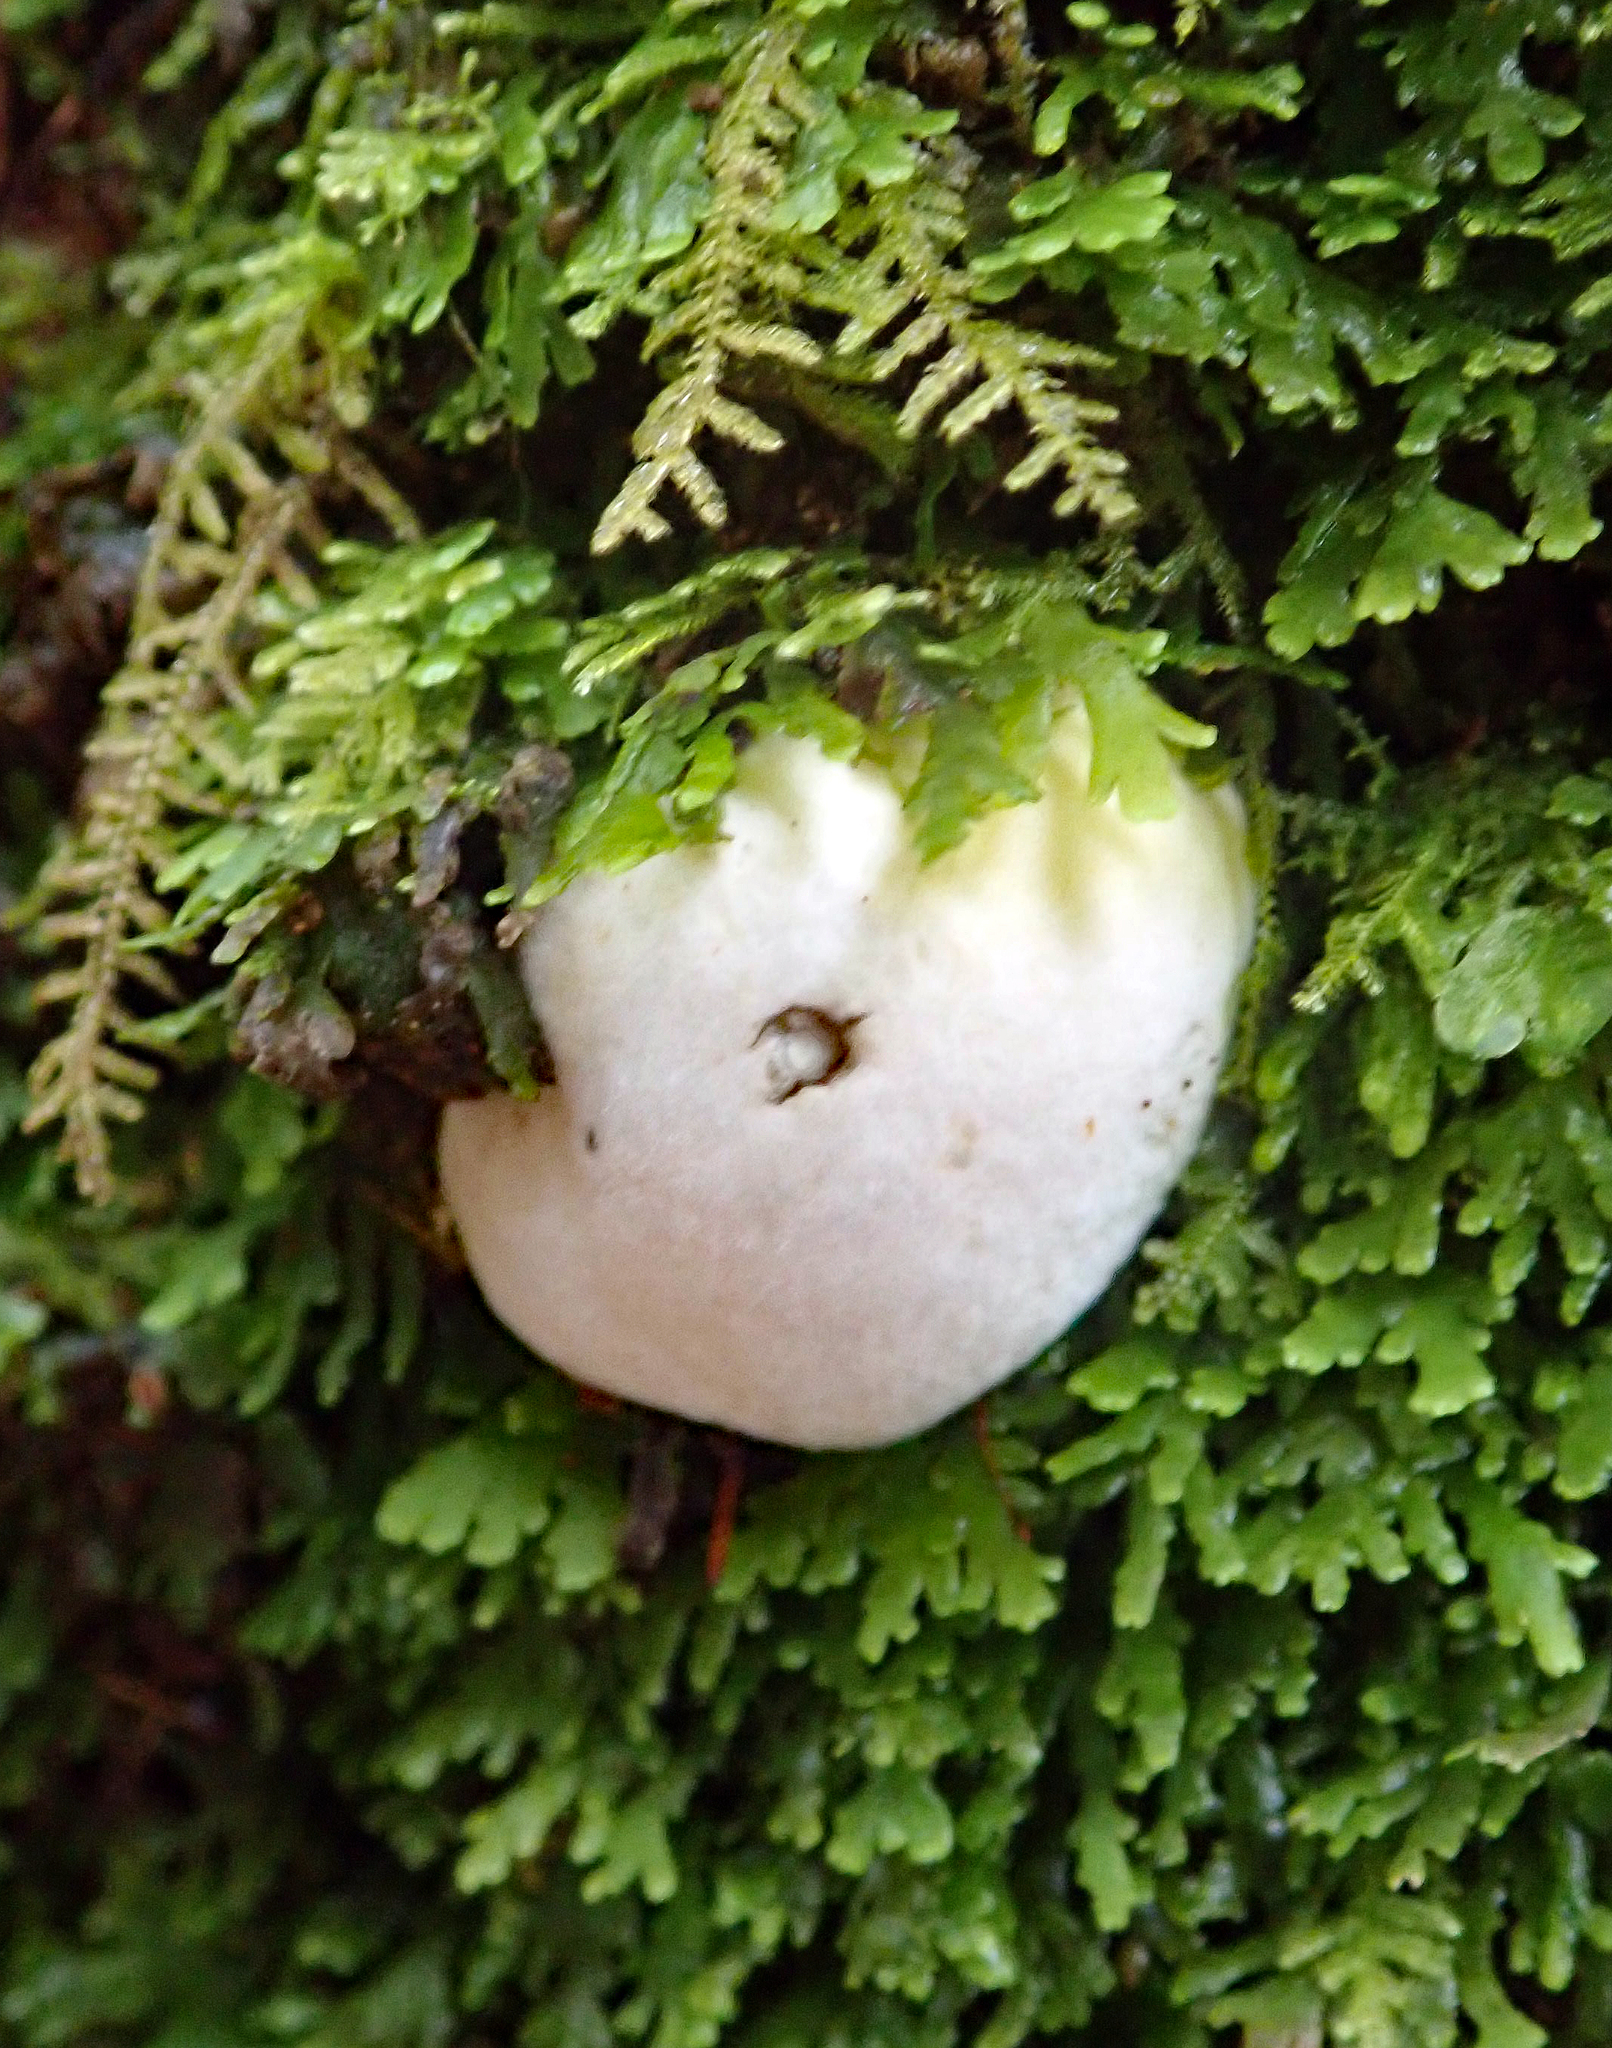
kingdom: Fungi
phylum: Basidiomycota
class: Agaricomycetes
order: Boletales
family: Boletaceae
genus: Leccinum
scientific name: Leccinum pachyderme
